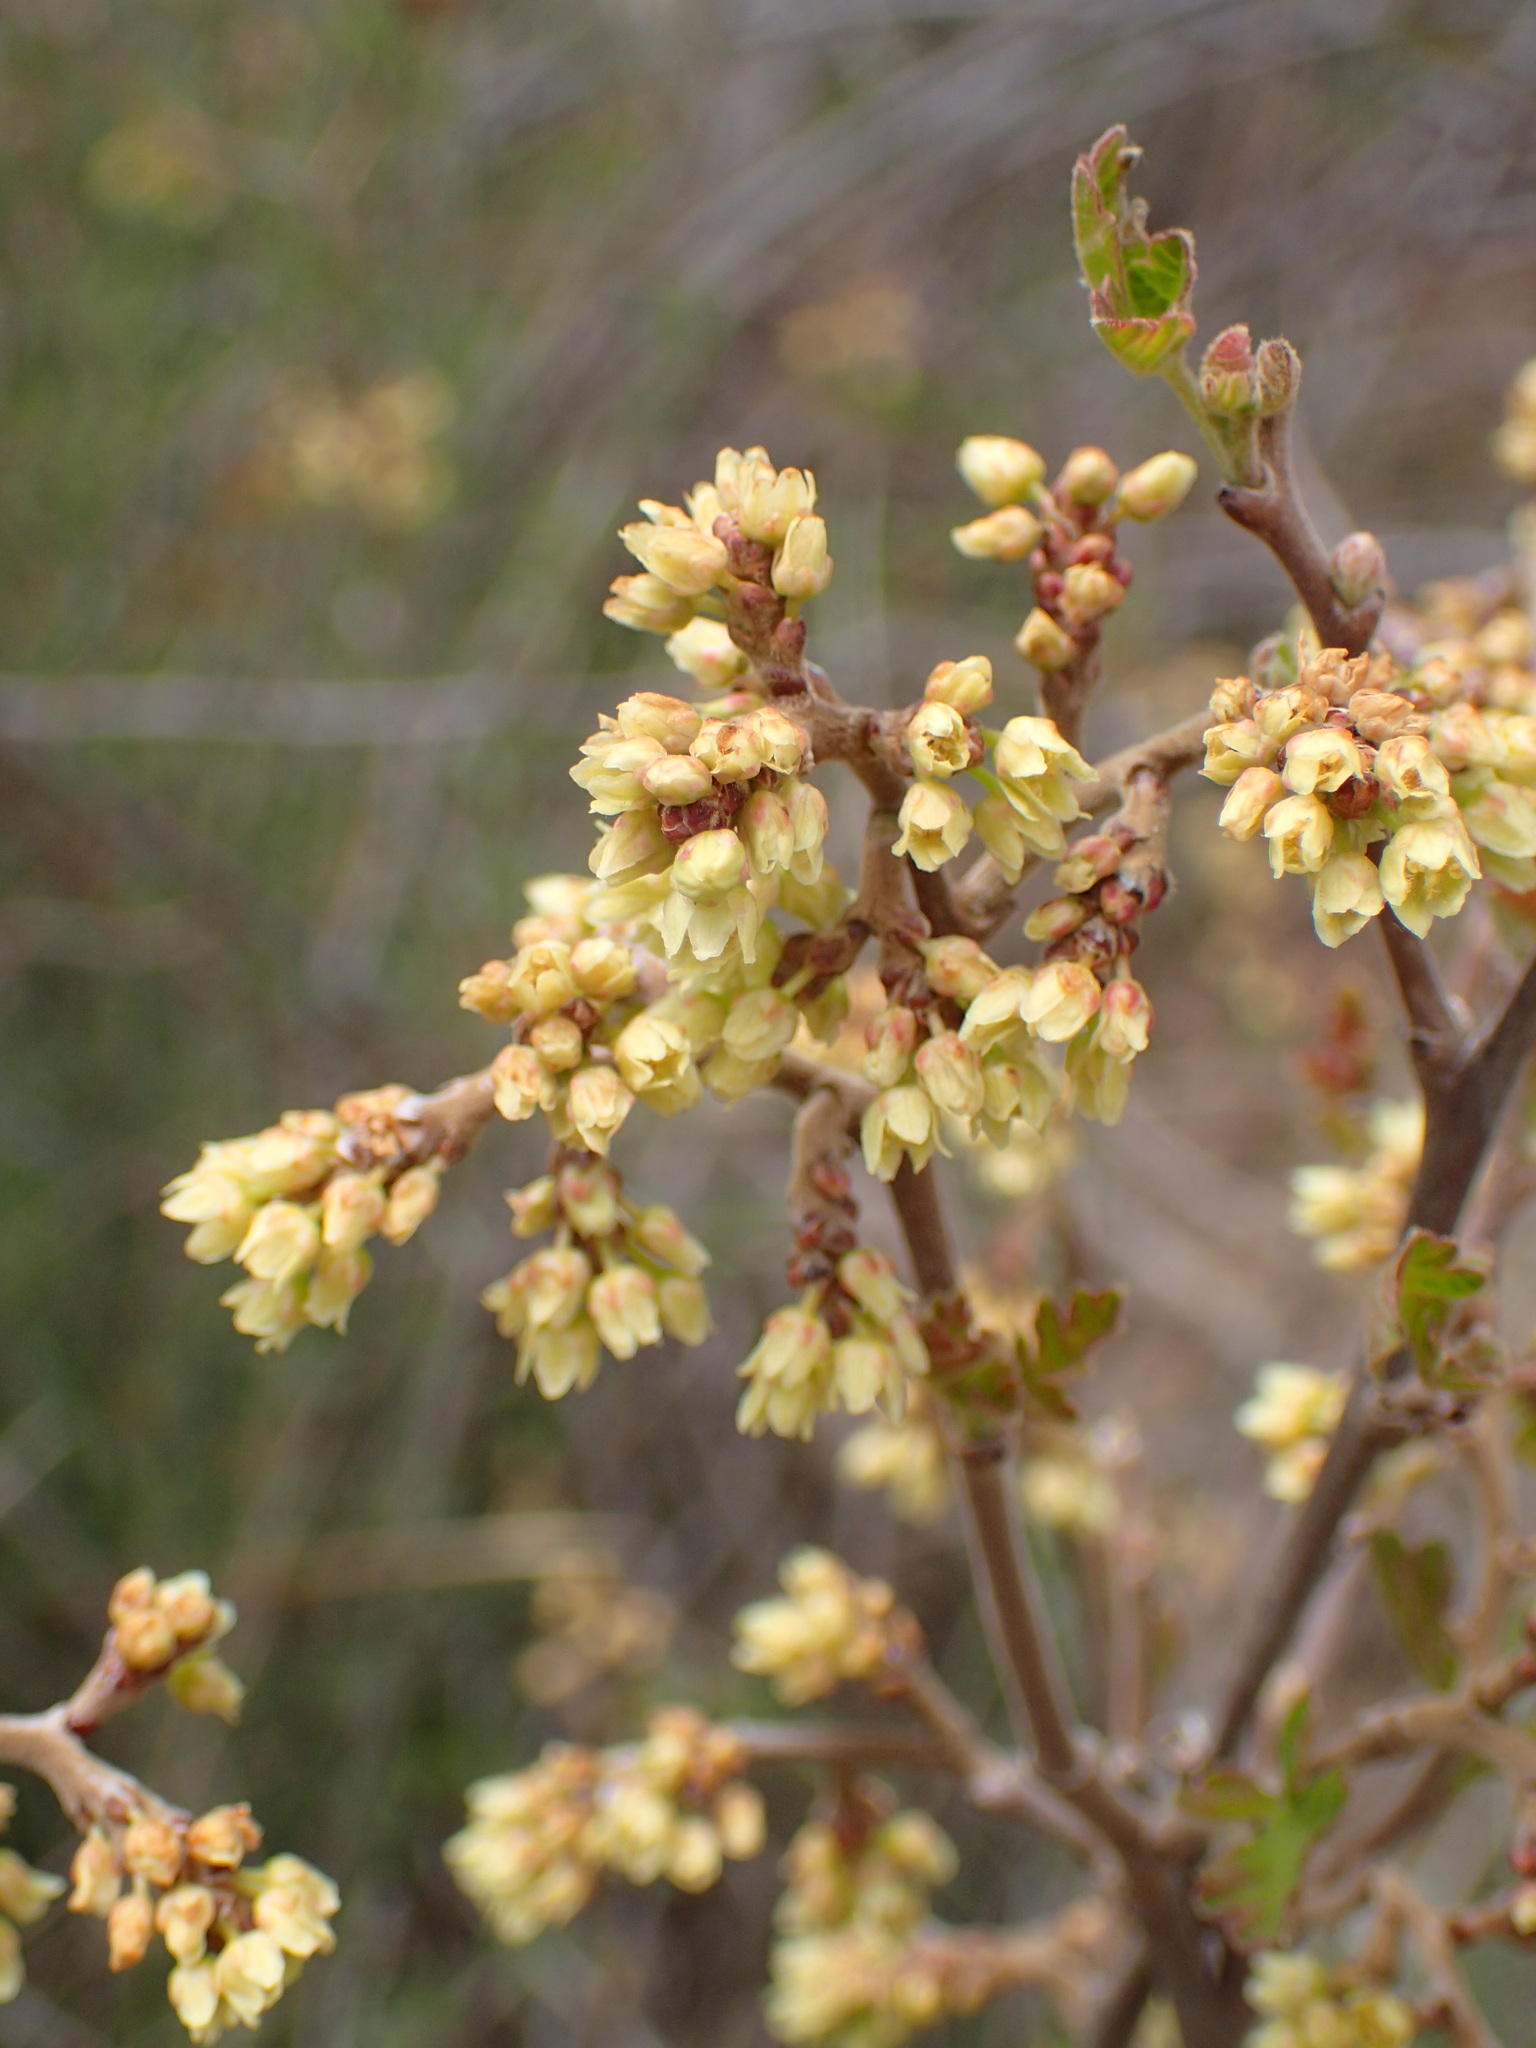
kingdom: Plantae
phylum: Tracheophyta
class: Magnoliopsida
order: Sapindales
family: Anacardiaceae
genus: Rhus
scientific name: Rhus aromatica
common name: Aromatic sumac
